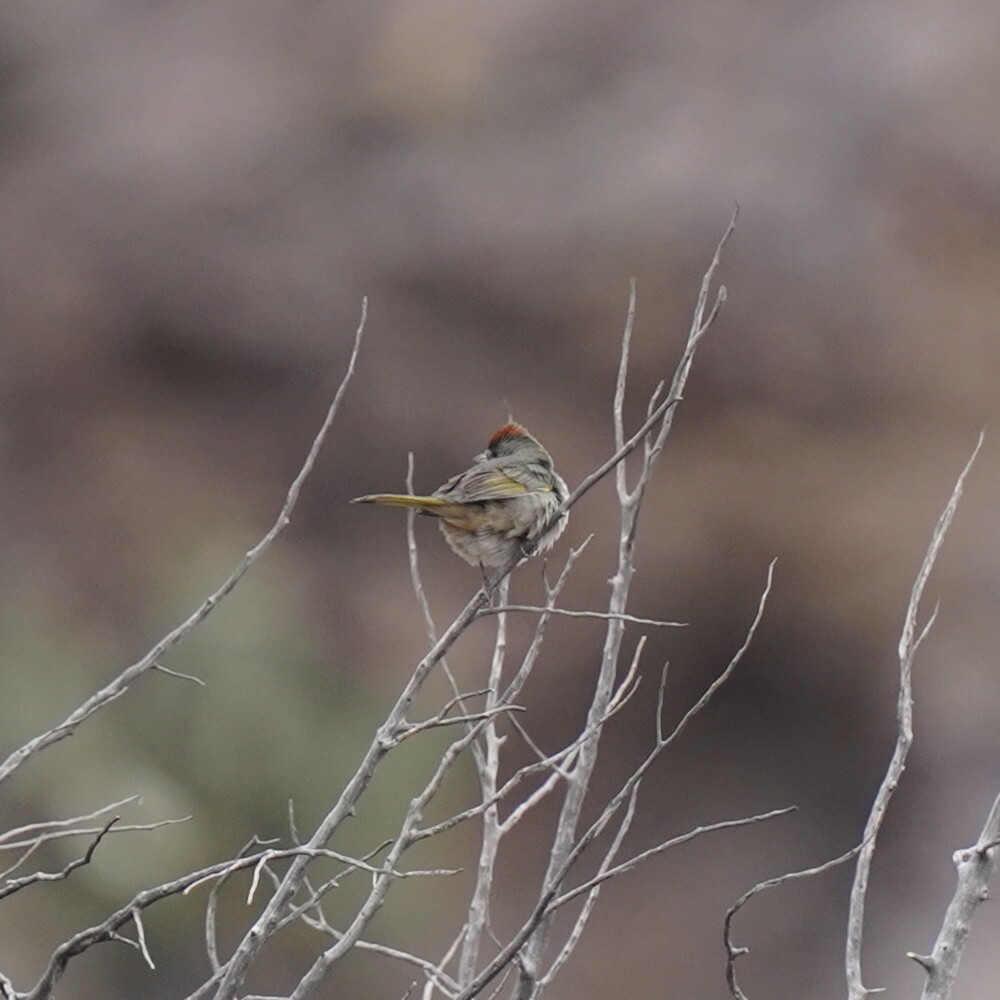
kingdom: Animalia
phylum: Chordata
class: Aves
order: Passeriformes
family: Passerellidae
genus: Pipilo
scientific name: Pipilo chlorurus
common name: Green-tailed towhee
